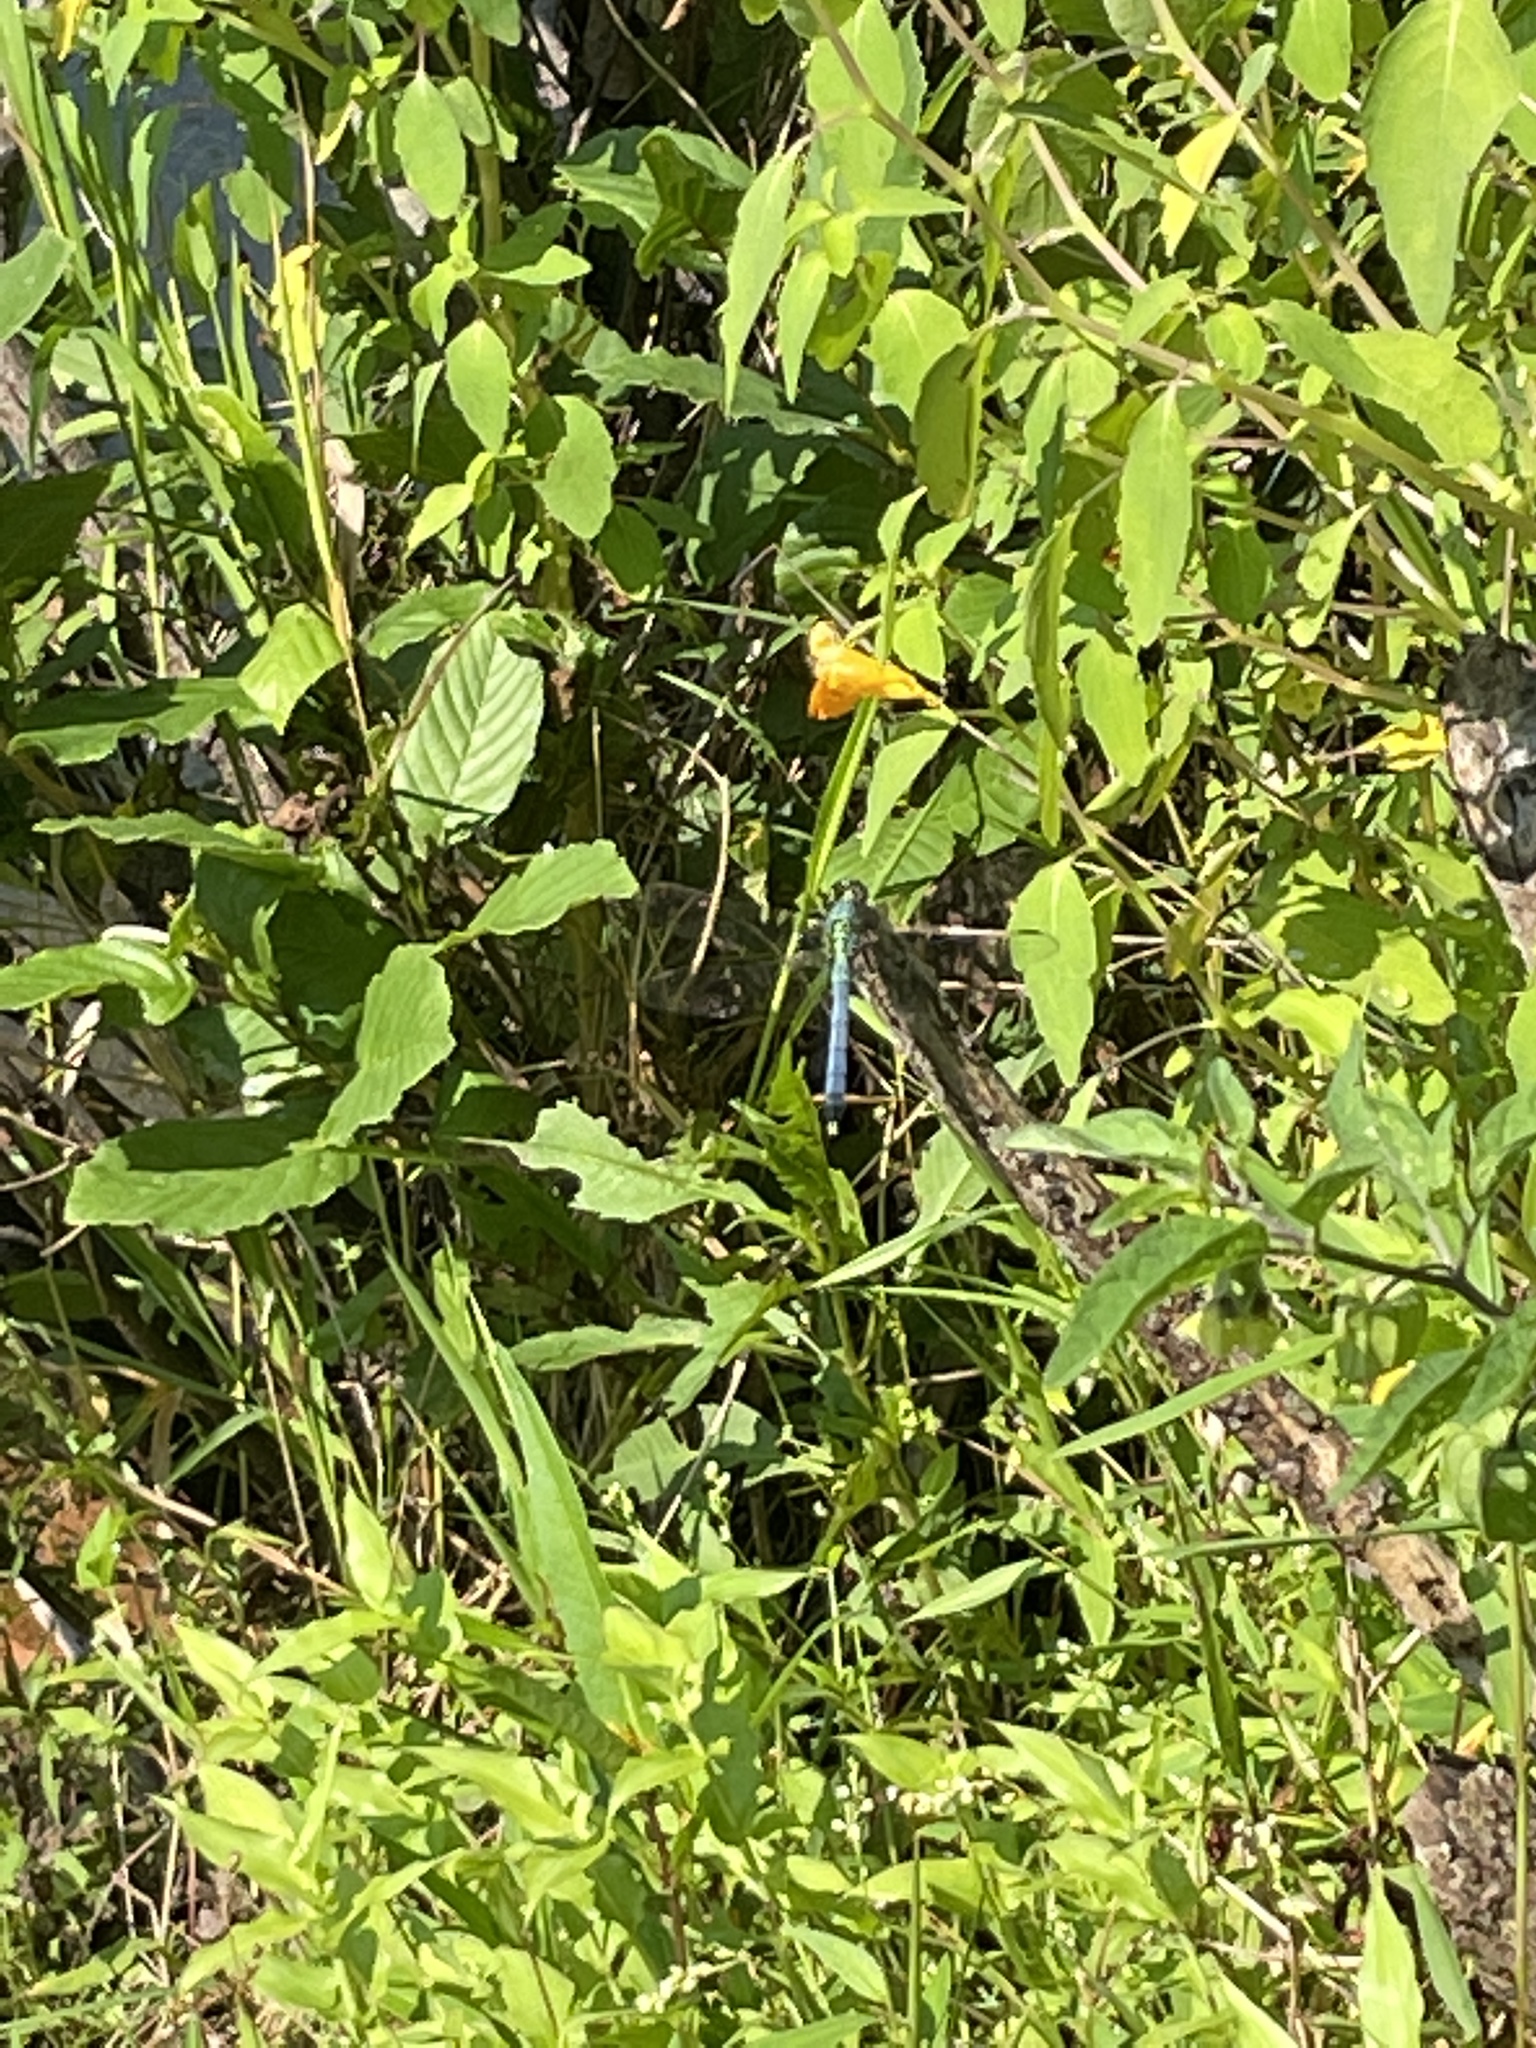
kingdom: Animalia
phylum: Arthropoda
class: Insecta
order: Odonata
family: Libellulidae
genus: Erythemis
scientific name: Erythemis simplicicollis
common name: Eastern pondhawk
